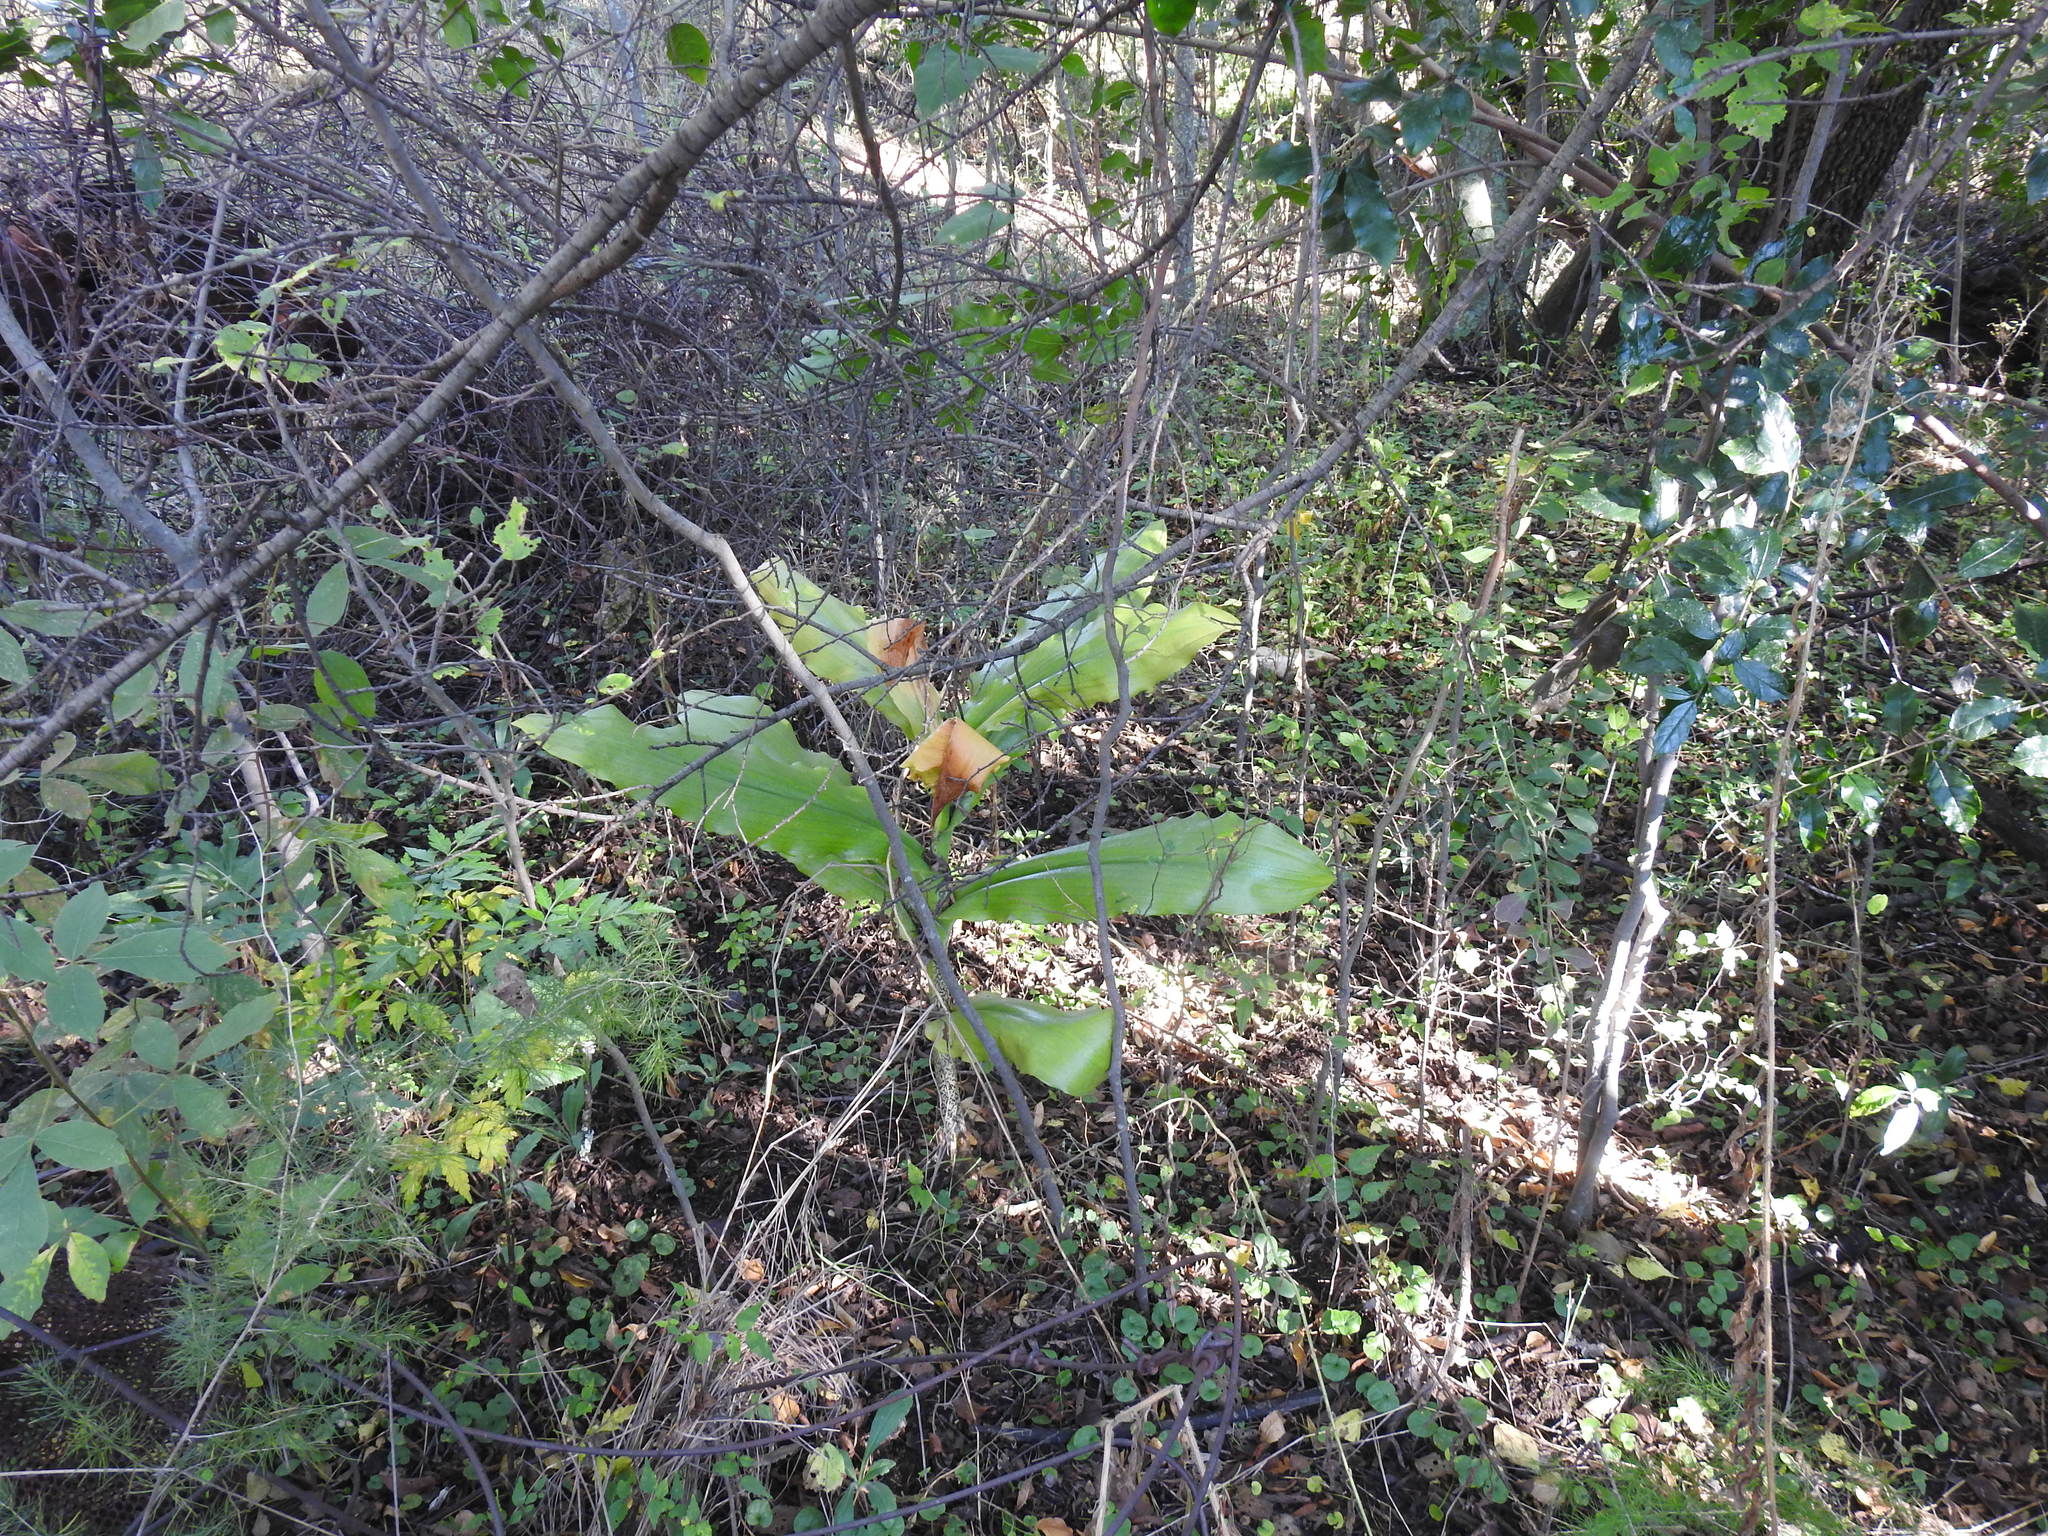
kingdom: Plantae
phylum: Tracheophyta
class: Liliopsida
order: Asparagales
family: Amaryllidaceae
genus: Scadoxus
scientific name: Scadoxus puniceus
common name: Royal-paintbrush
